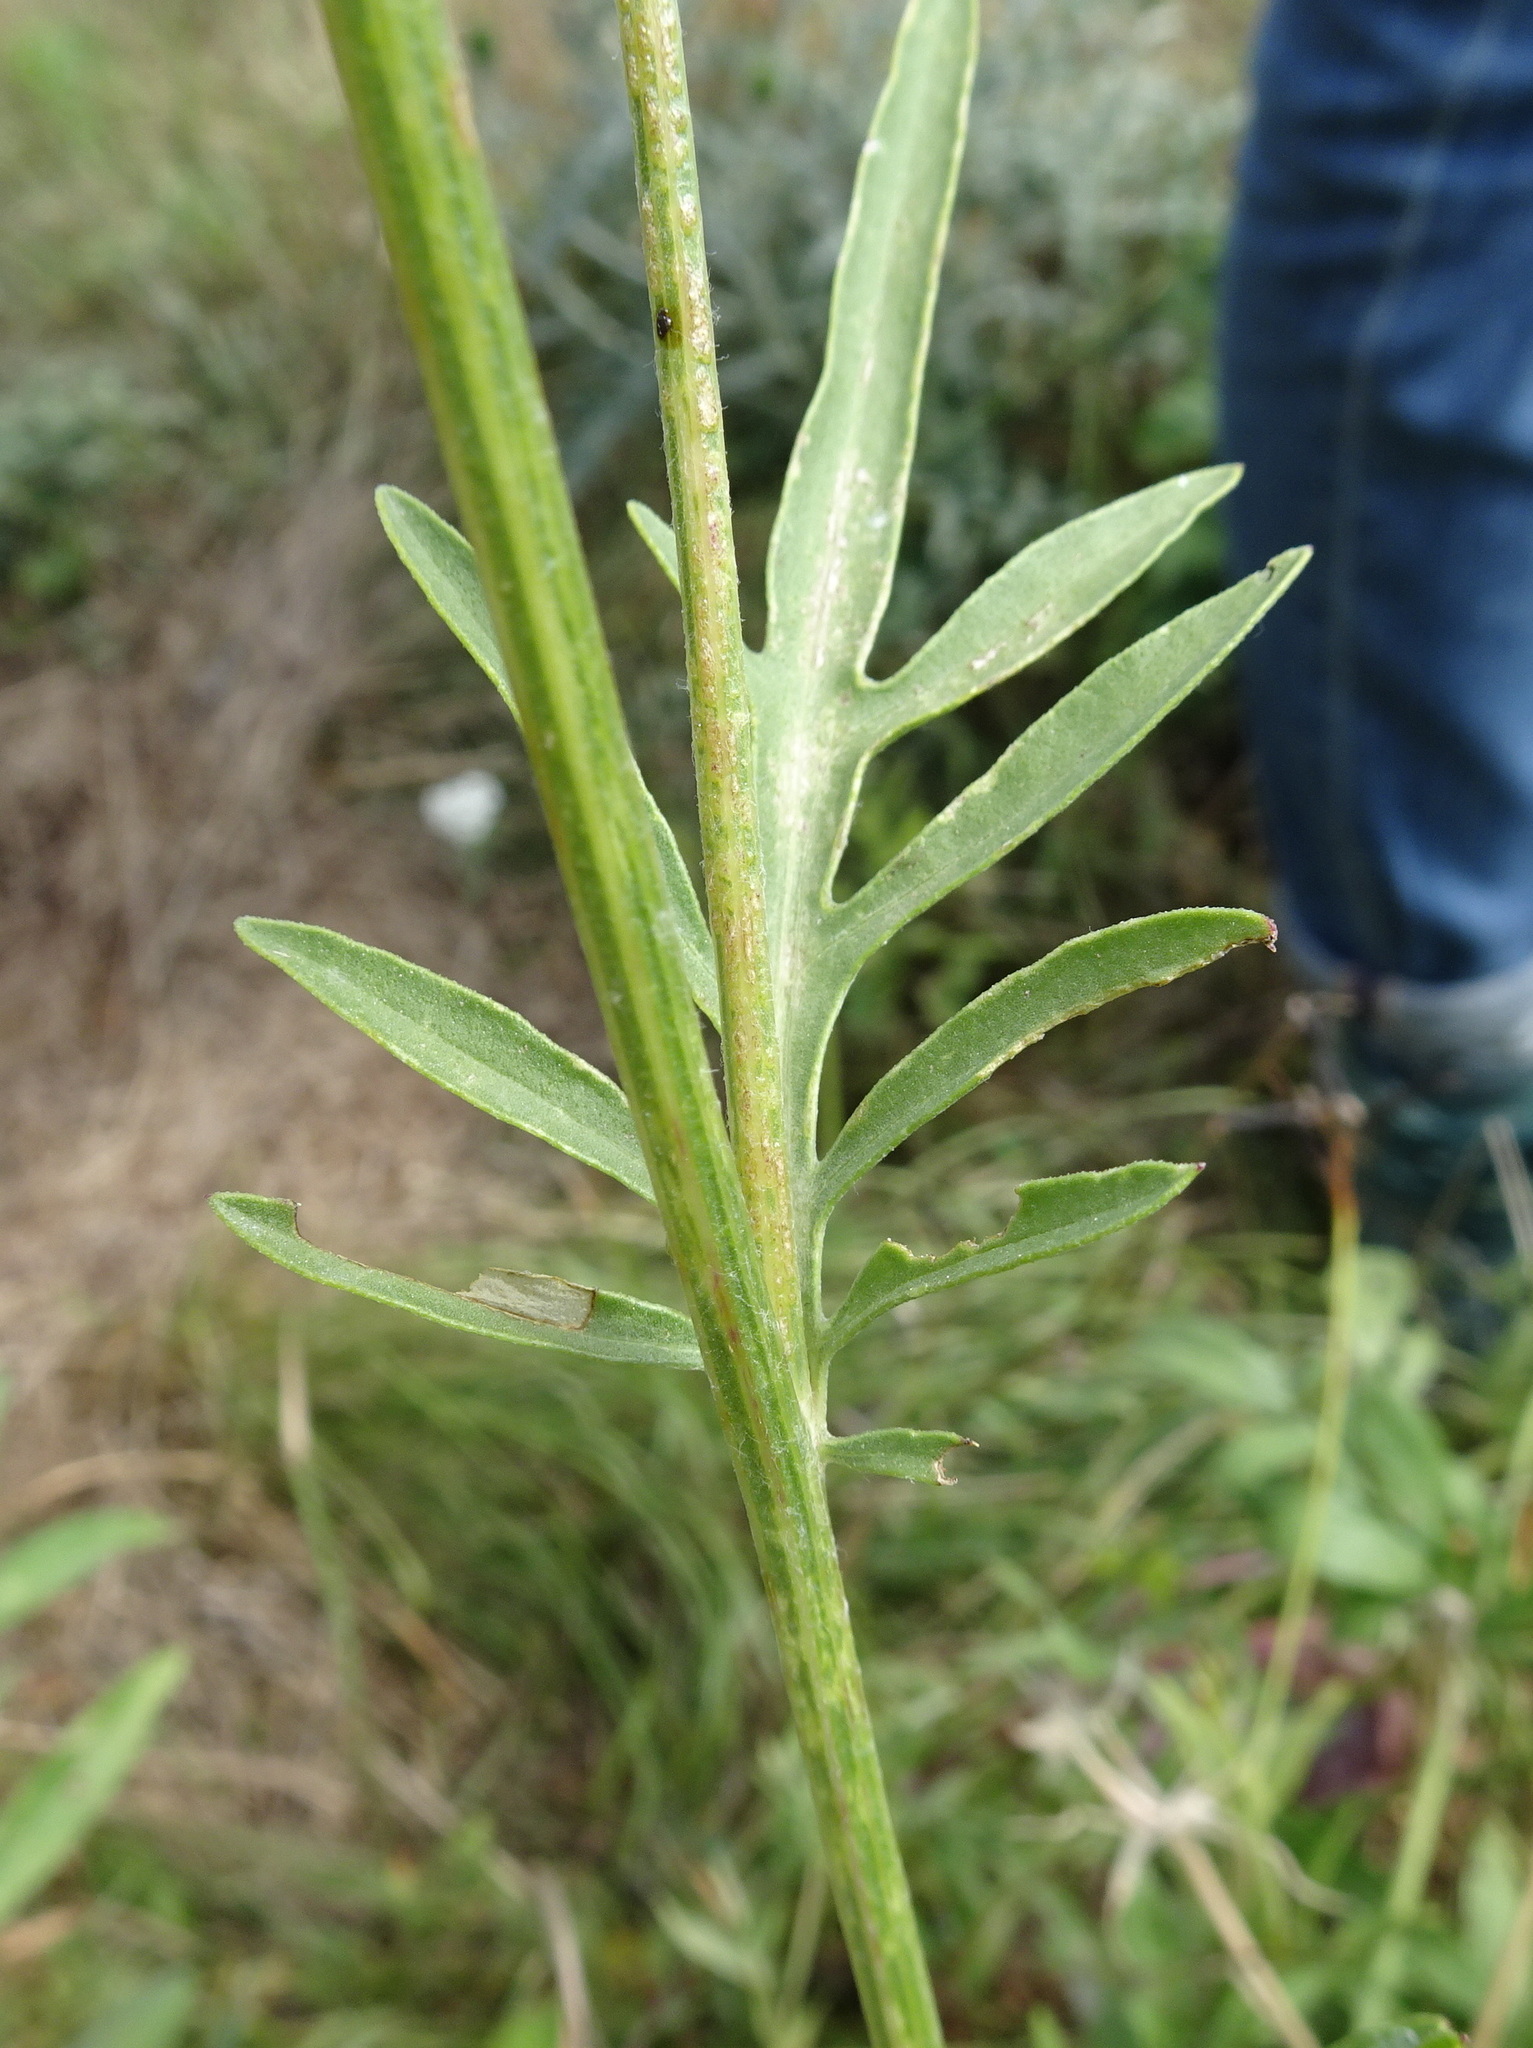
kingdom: Plantae
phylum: Tracheophyta
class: Magnoliopsida
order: Asterales
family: Asteraceae
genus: Centaurea
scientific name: Centaurea scabiosa
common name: Greater knapweed
